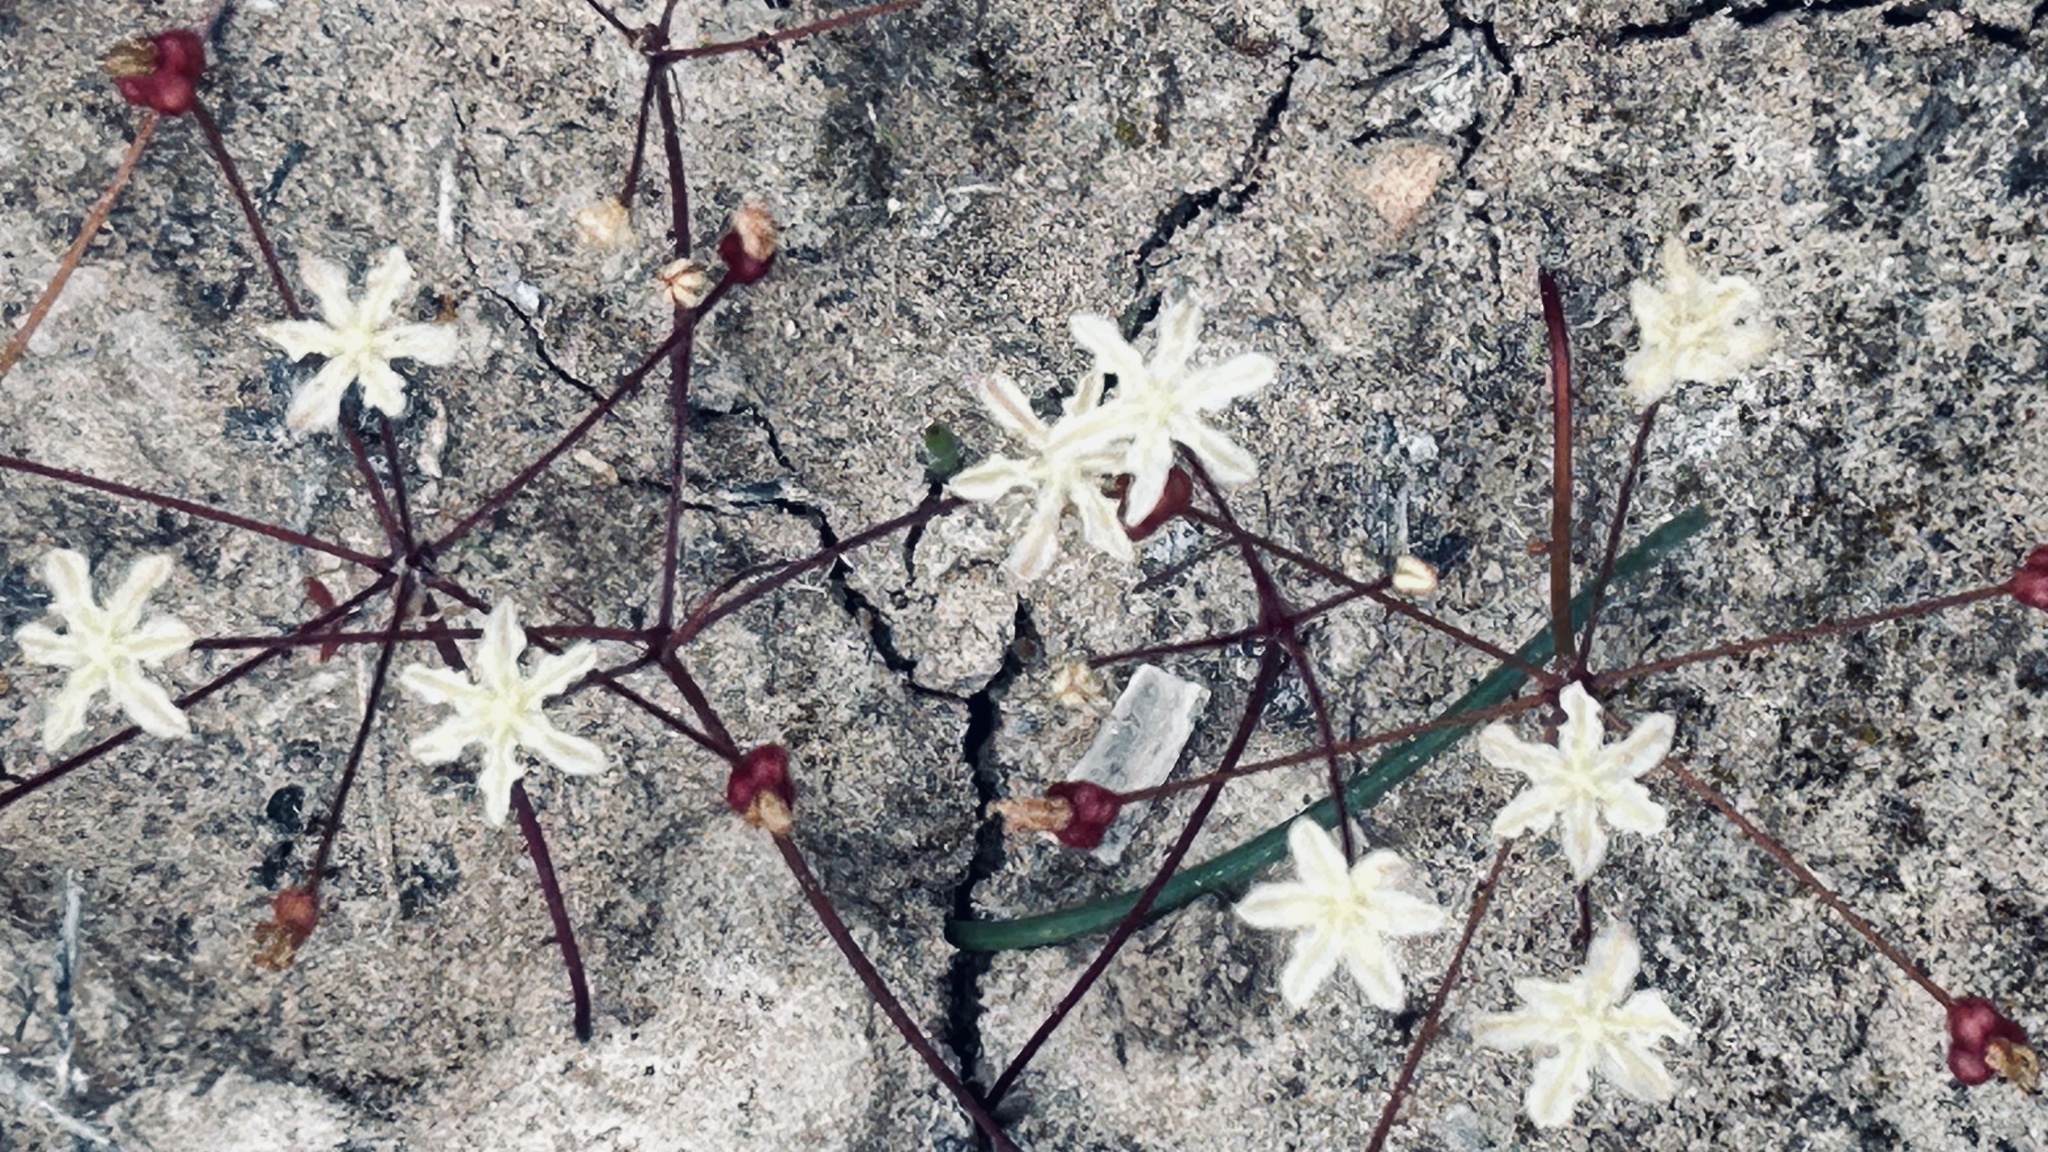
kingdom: Plantae
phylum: Tracheophyta
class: Liliopsida
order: Asparagales
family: Amaryllidaceae
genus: Strumaria
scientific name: Strumaria gemmata
